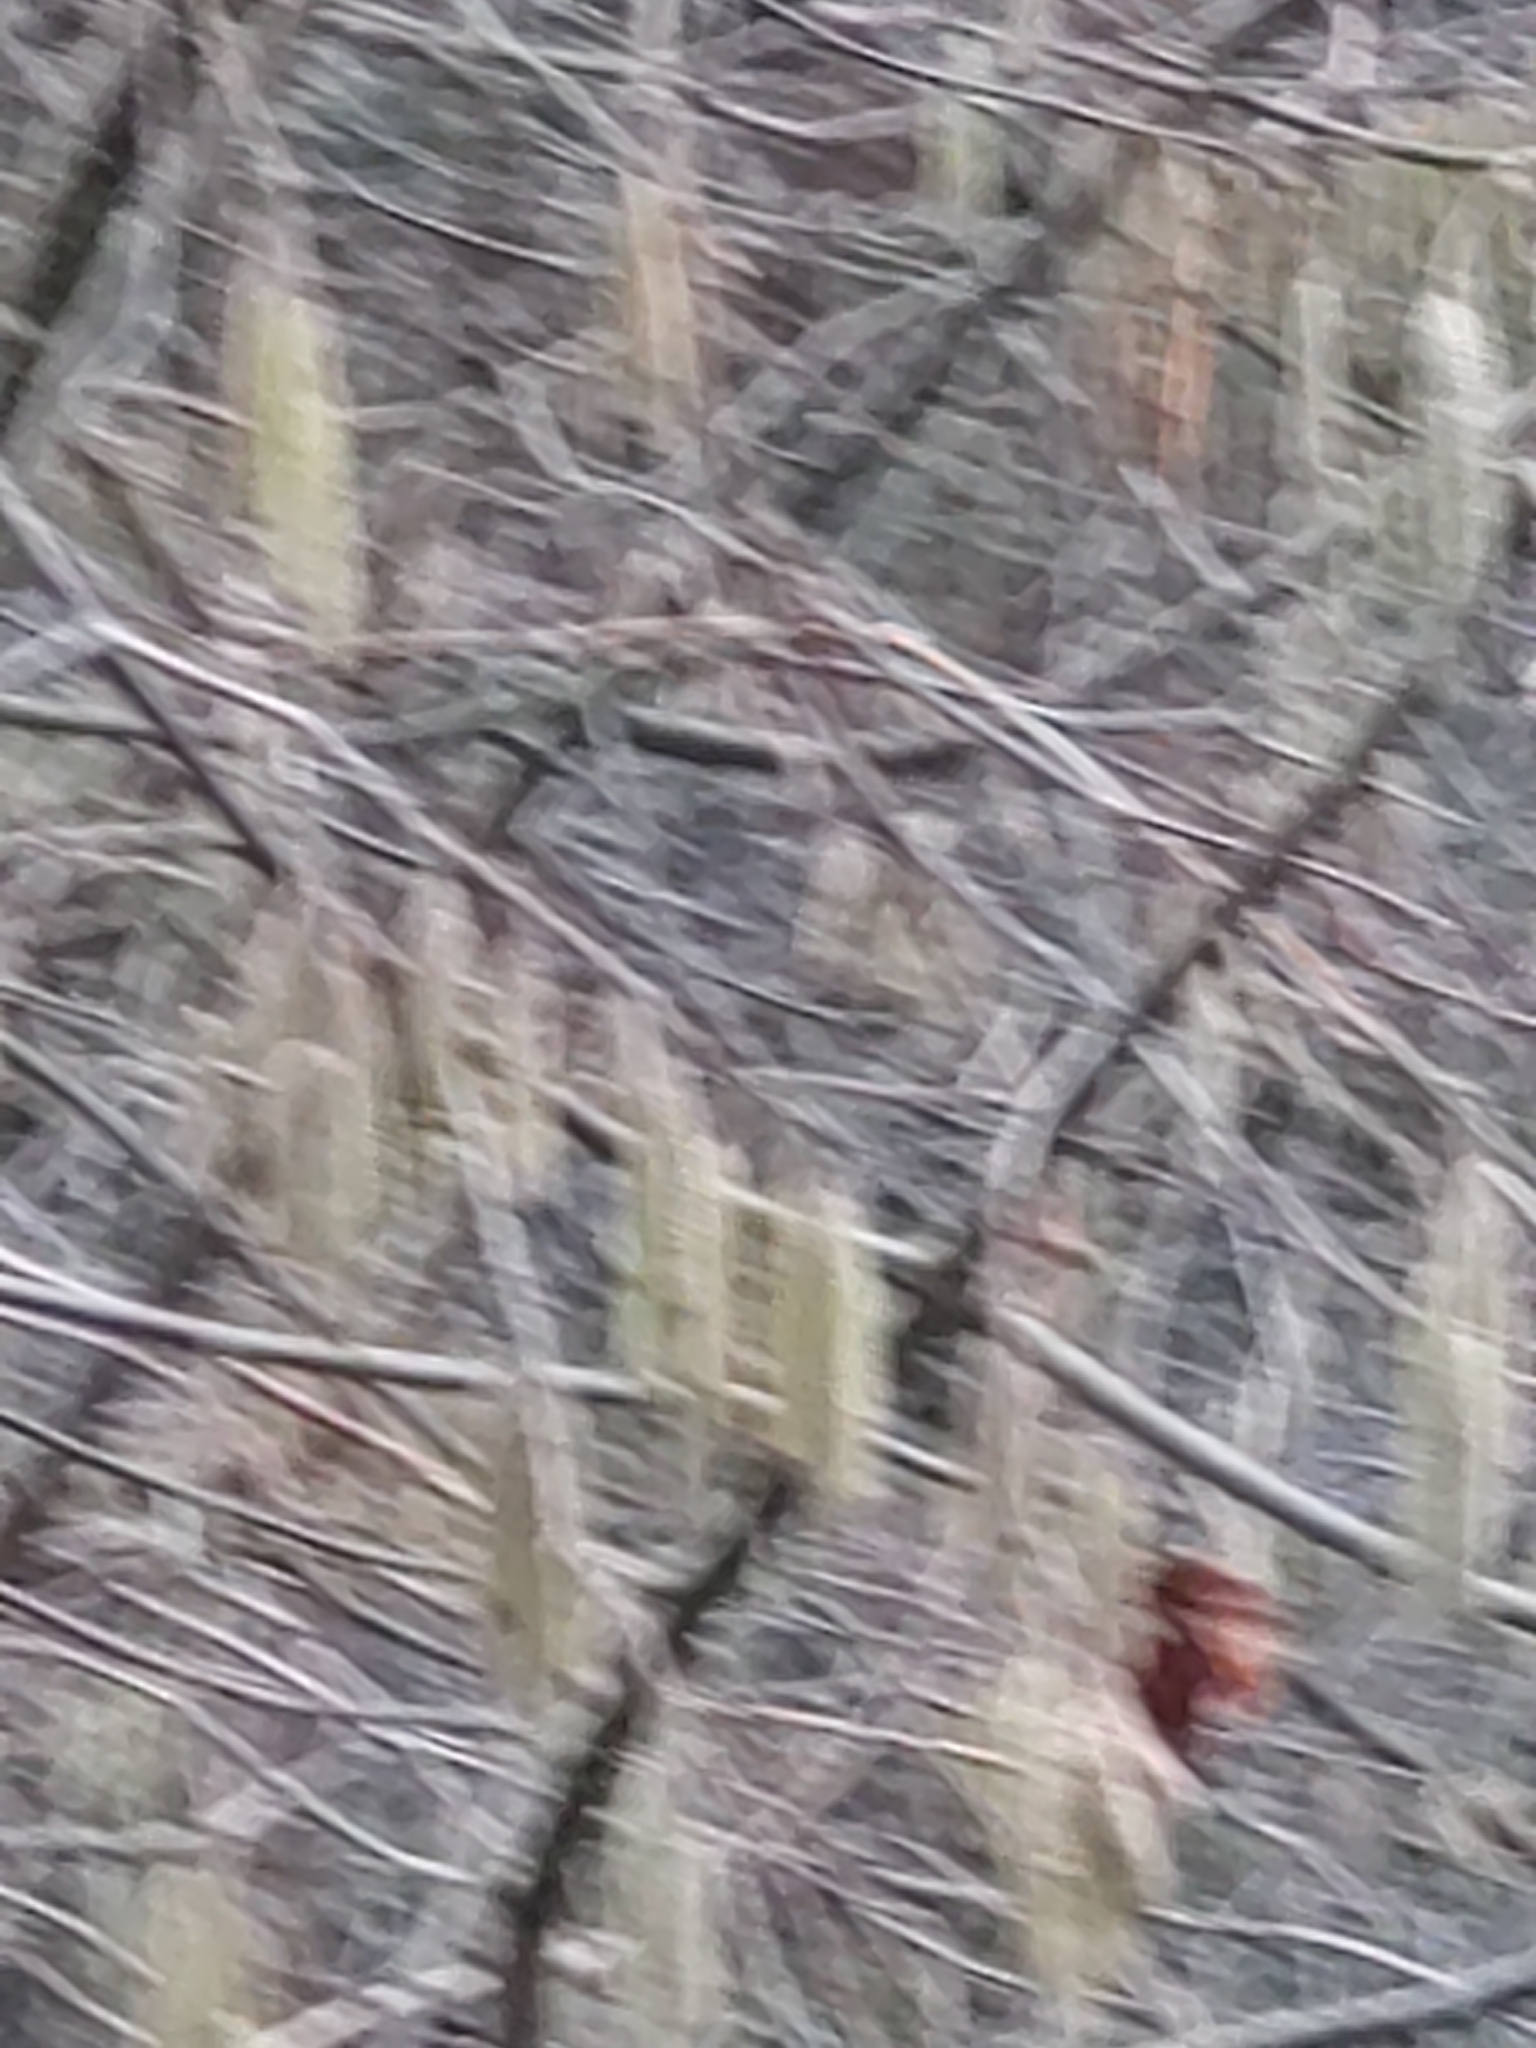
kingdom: Plantae
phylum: Tracheophyta
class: Magnoliopsida
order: Fagales
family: Betulaceae
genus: Corylus
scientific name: Corylus avellana
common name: European hazel
